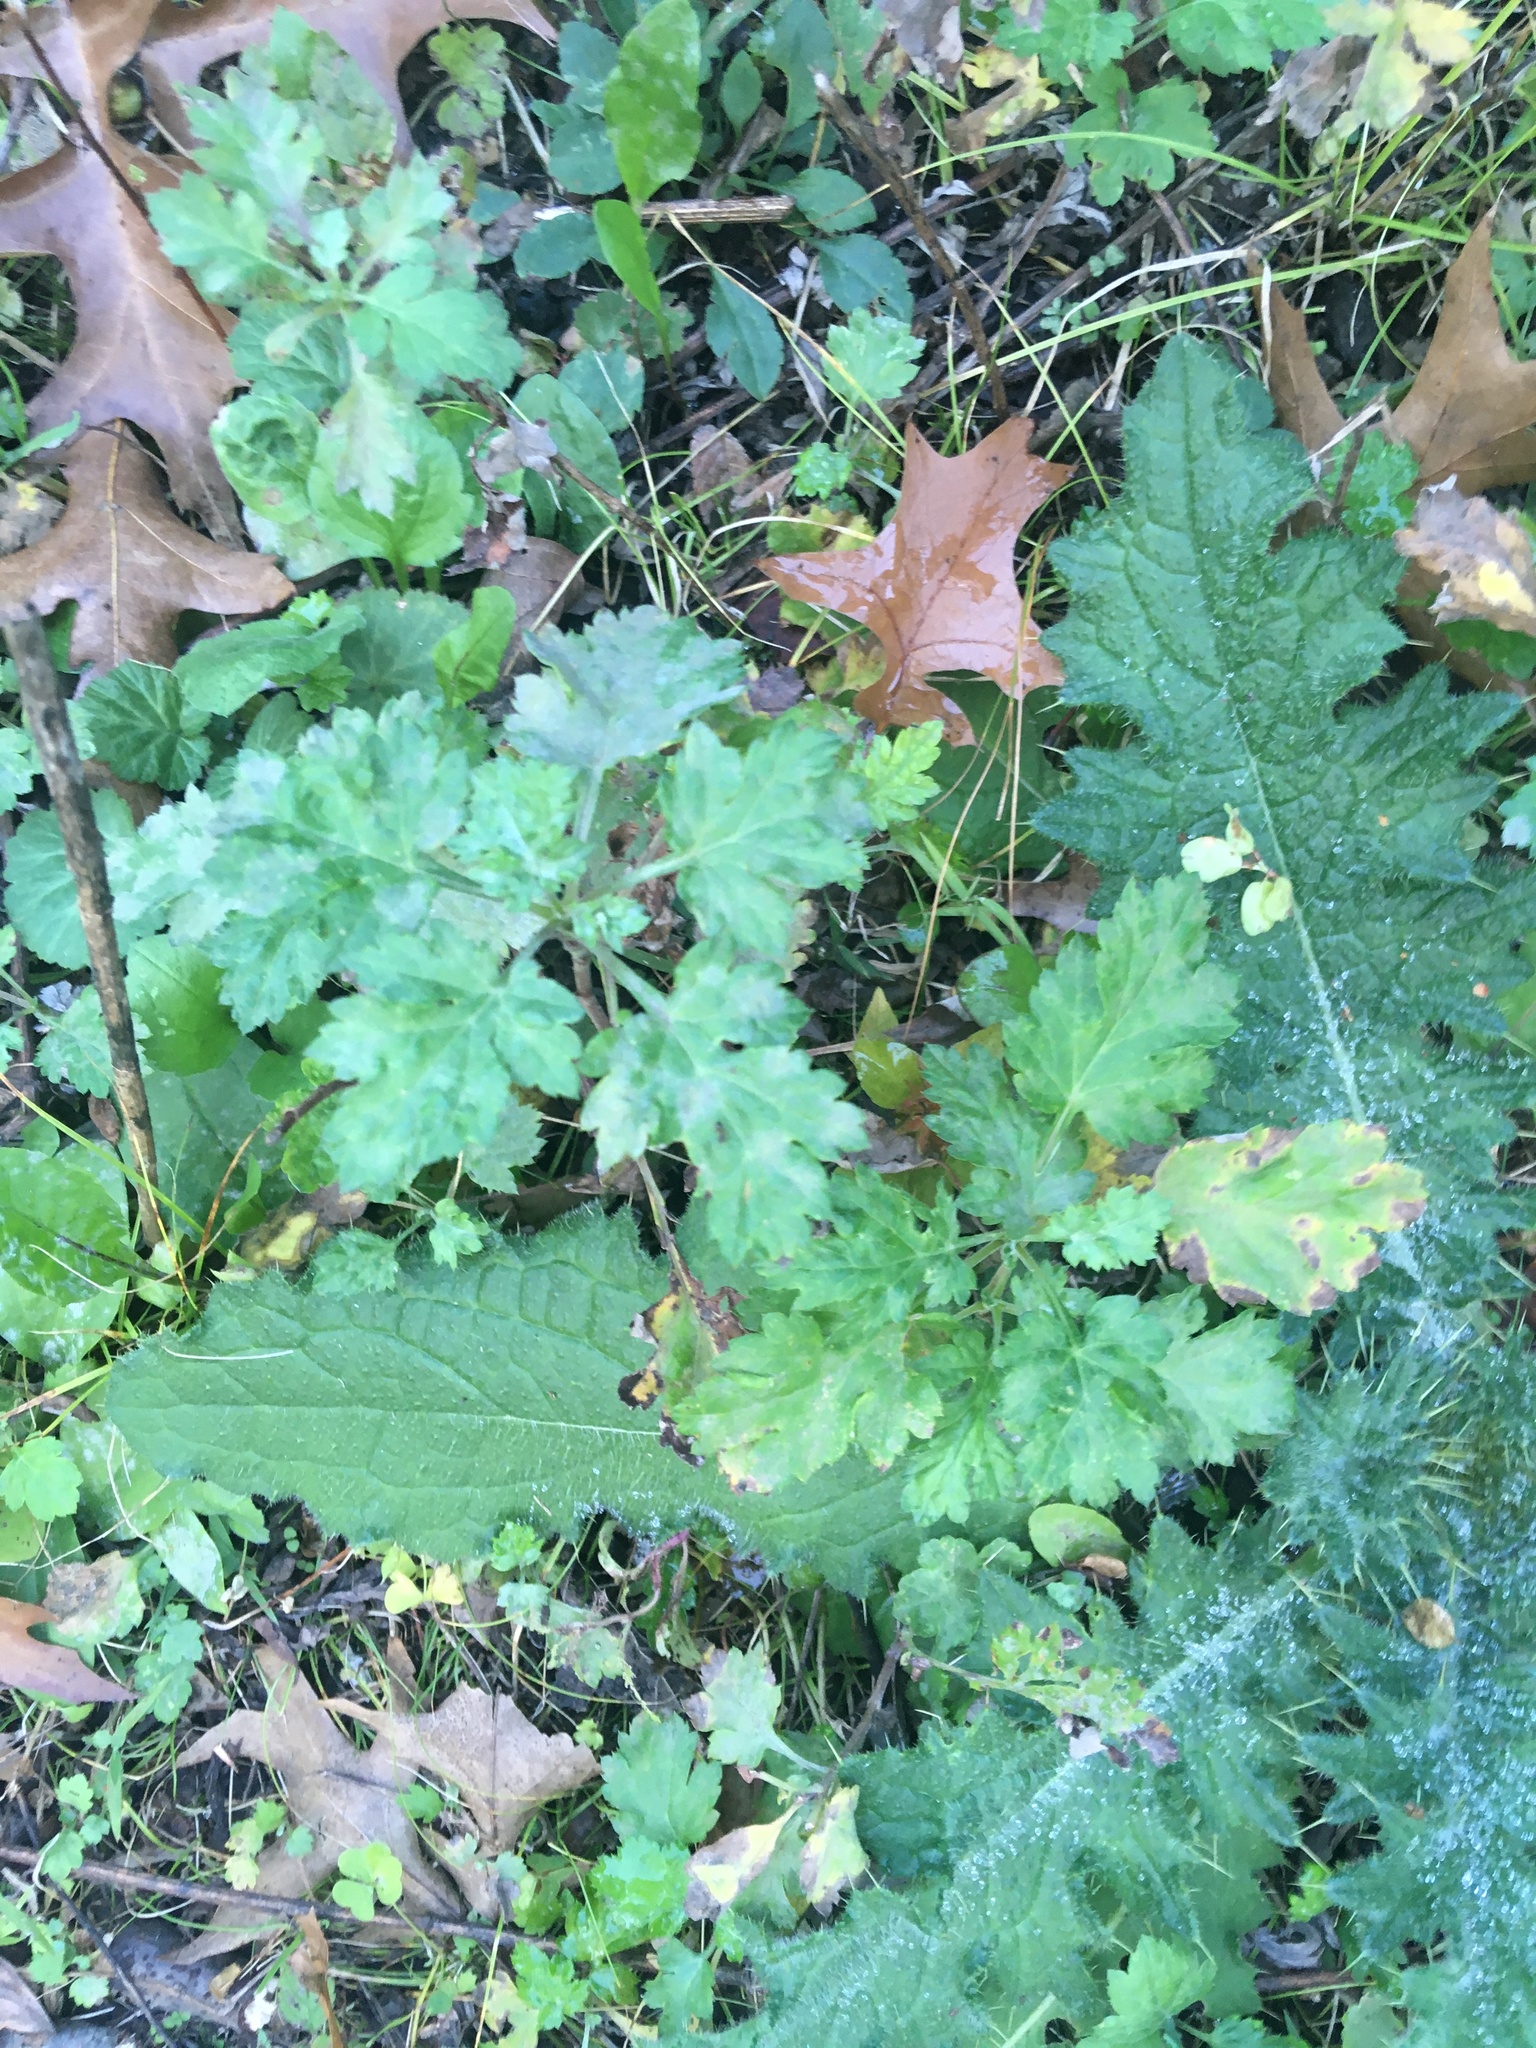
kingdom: Plantae
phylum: Tracheophyta
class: Magnoliopsida
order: Asterales
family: Asteraceae
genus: Artemisia
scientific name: Artemisia vulgaris
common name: Mugwort
